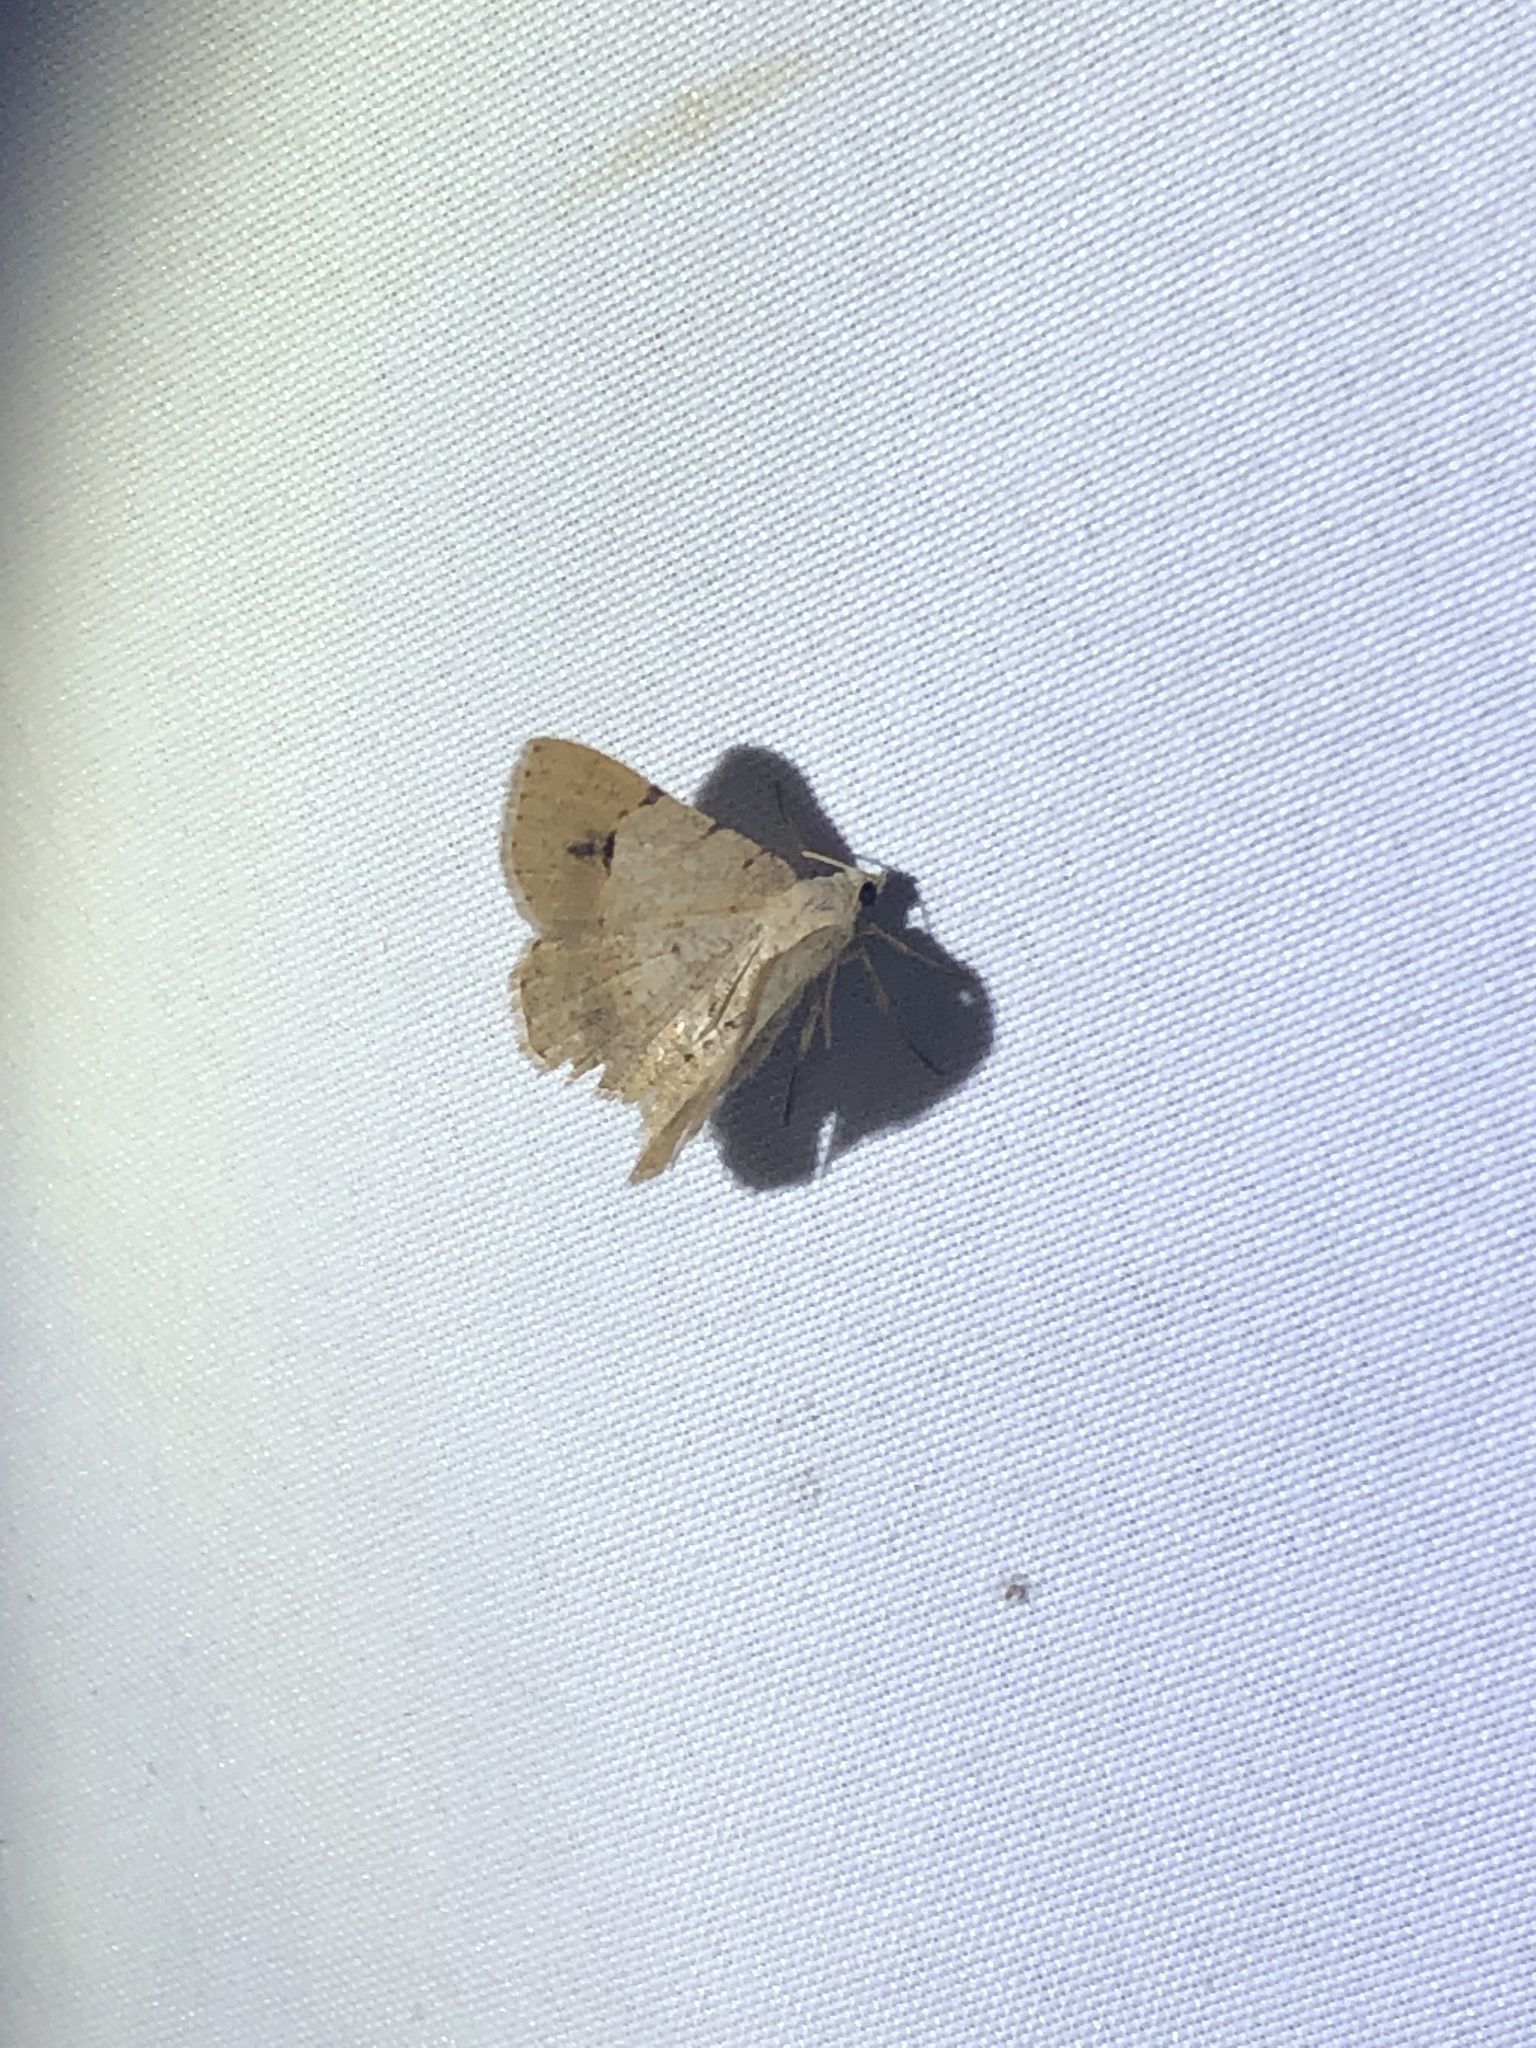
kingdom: Animalia
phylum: Arthropoda
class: Insecta
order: Lepidoptera
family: Geometridae
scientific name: Geometridae
